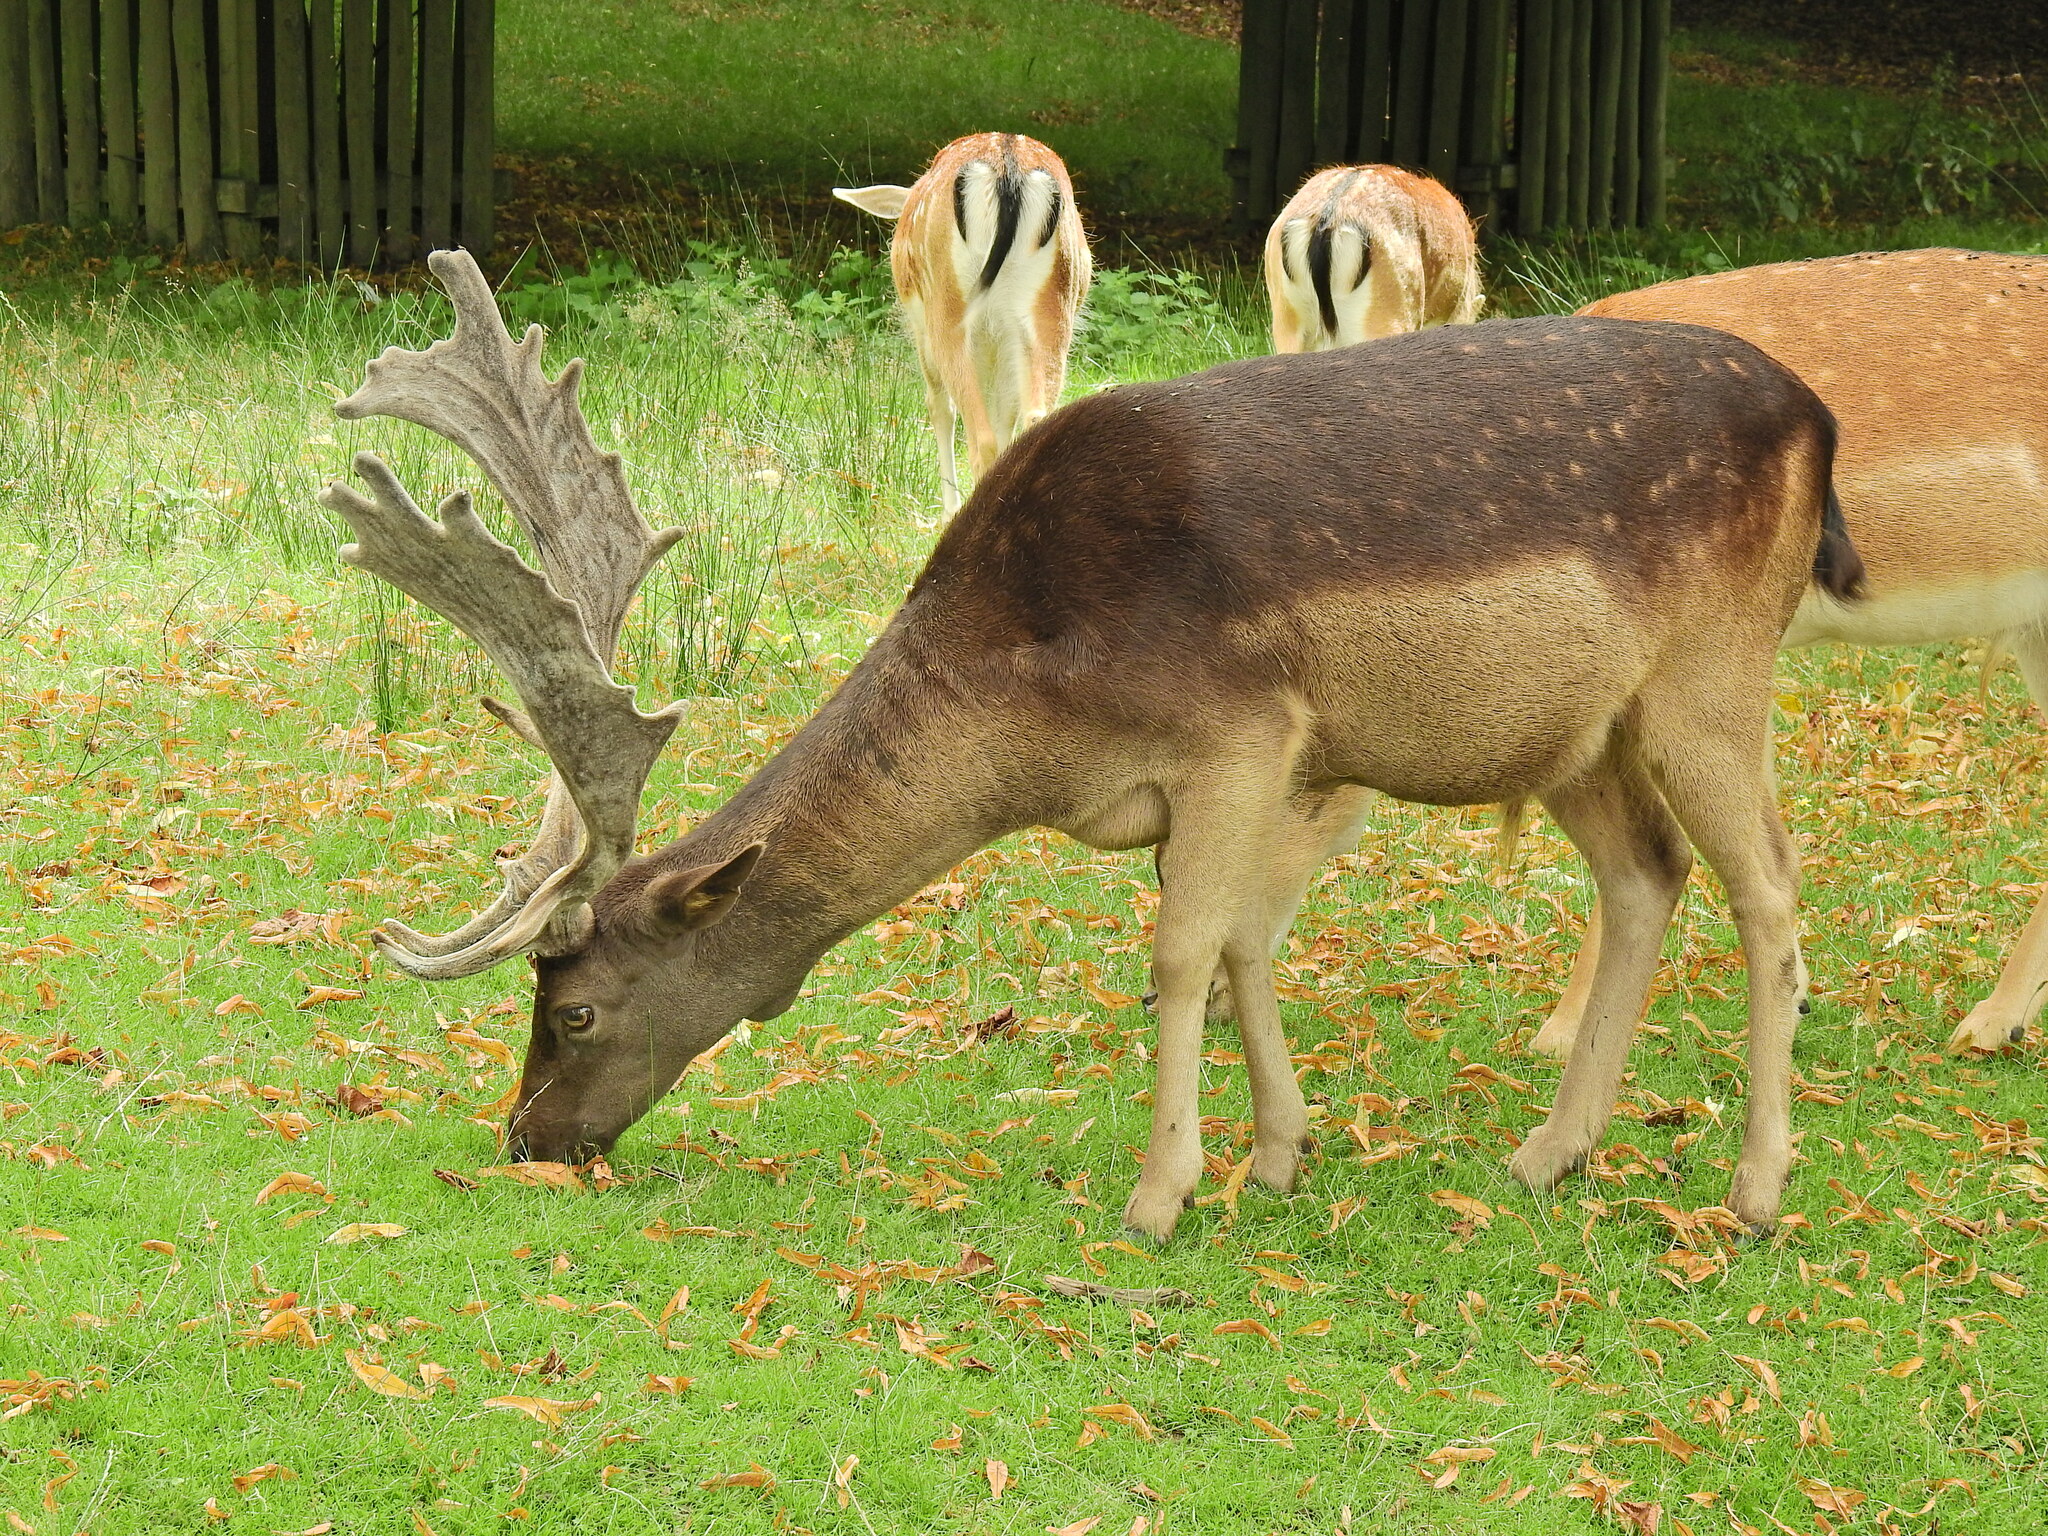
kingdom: Animalia
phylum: Chordata
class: Mammalia
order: Artiodactyla
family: Cervidae
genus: Dama
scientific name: Dama dama
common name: Fallow deer
